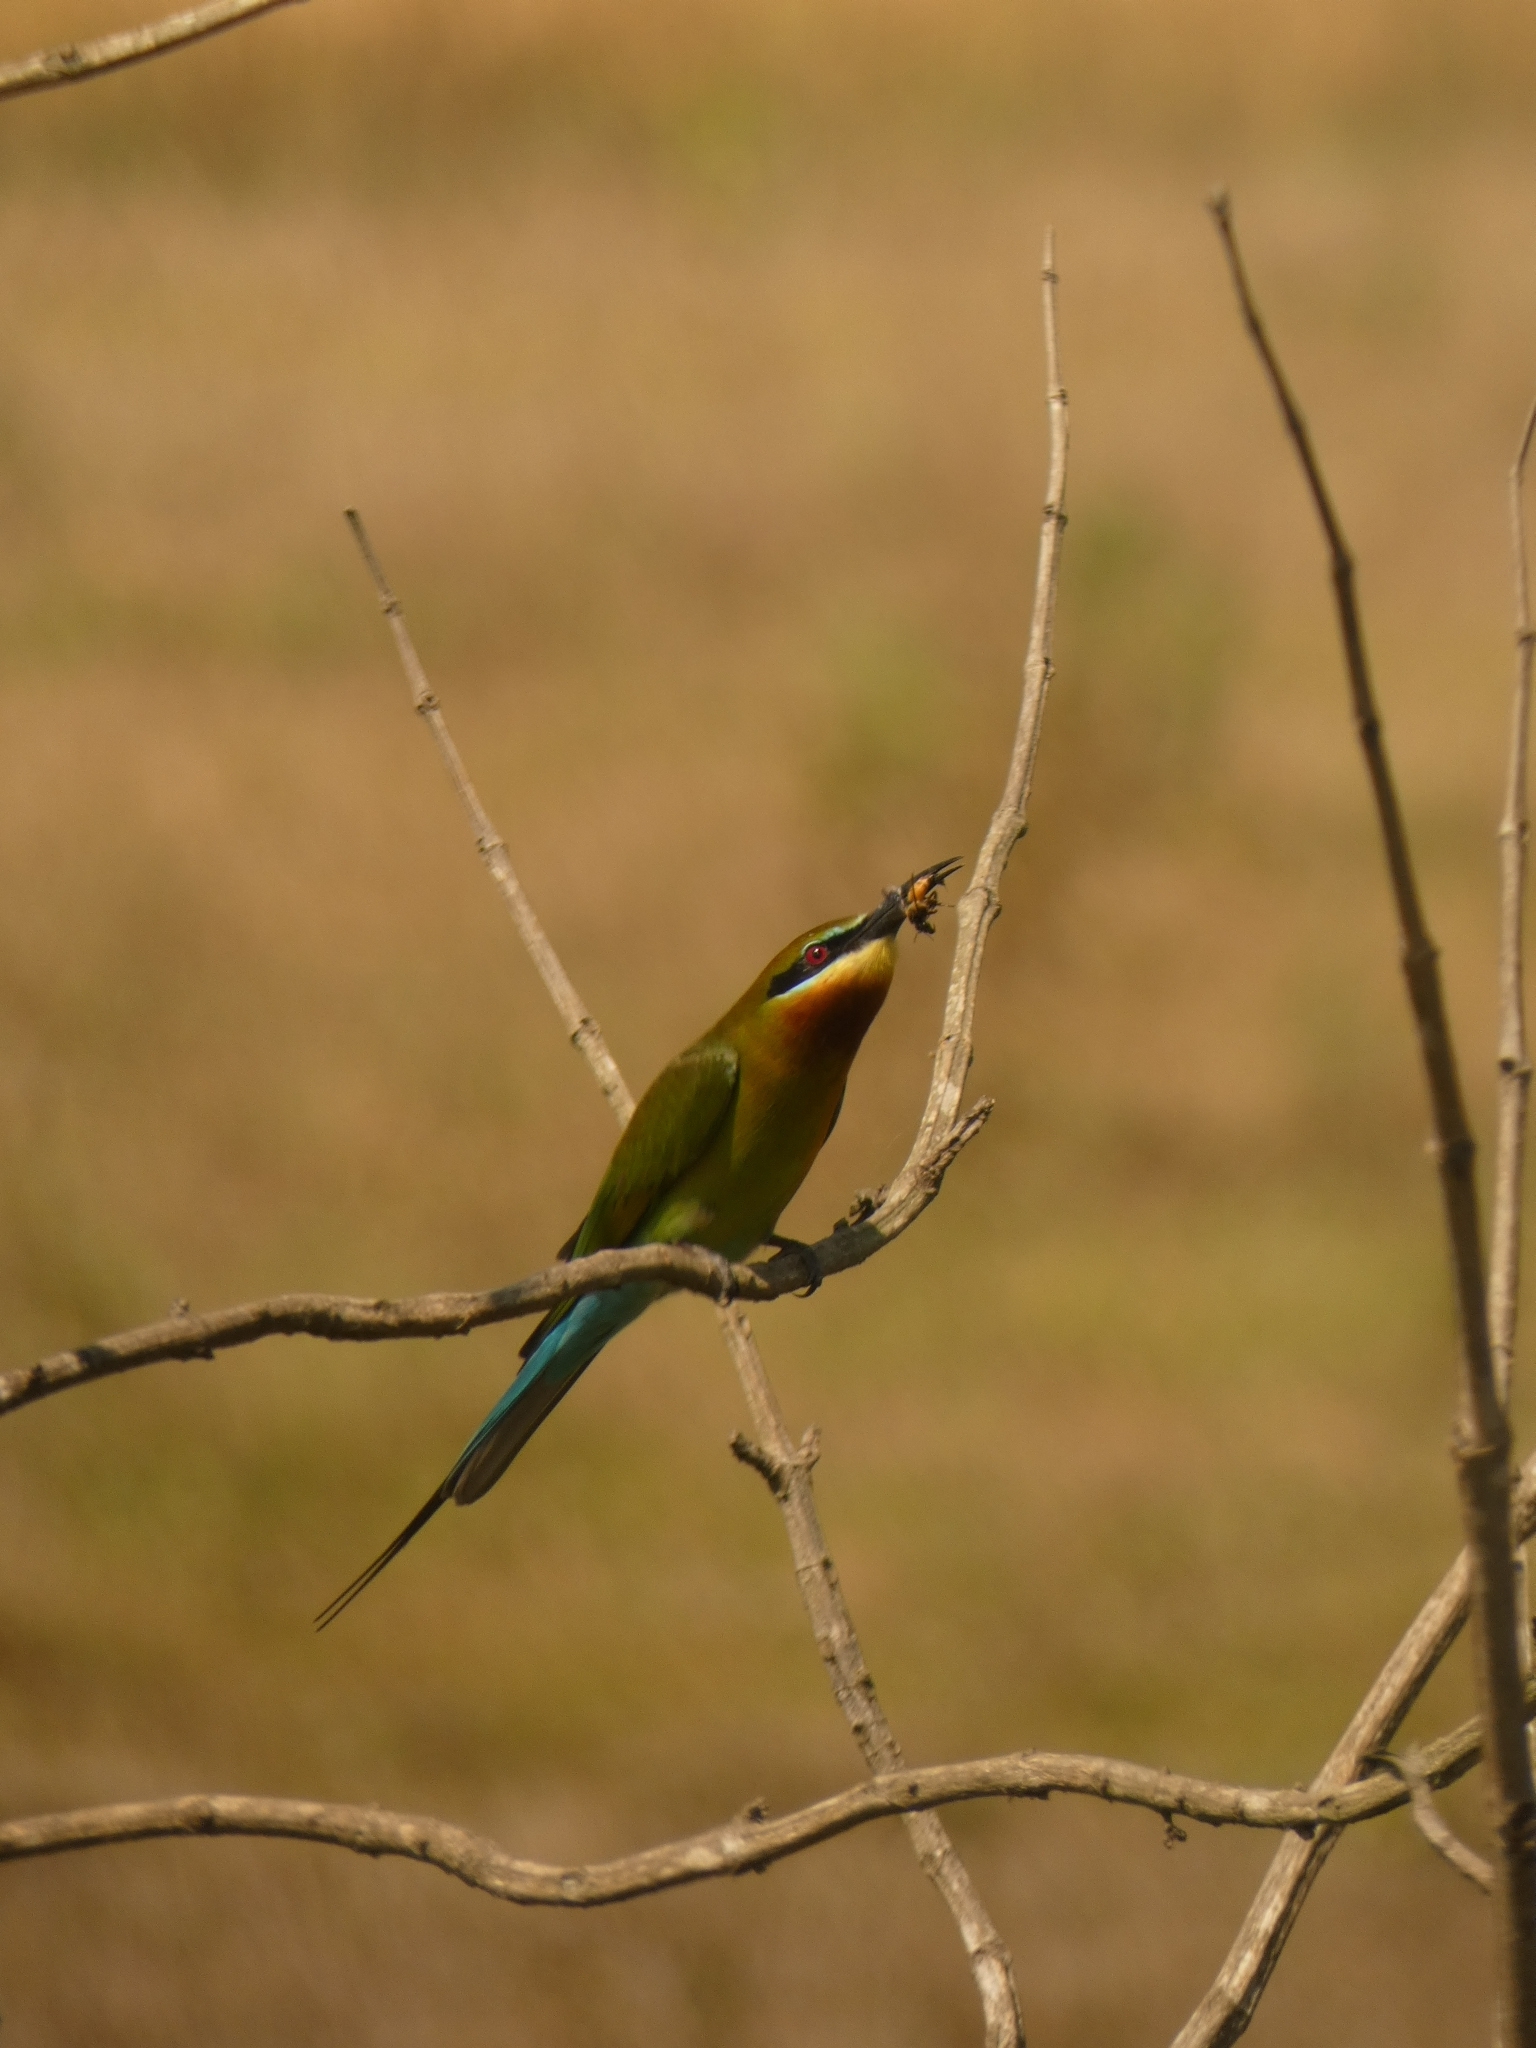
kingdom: Animalia
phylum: Chordata
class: Aves
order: Coraciiformes
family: Meropidae
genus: Merops
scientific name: Merops philippinus
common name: Blue-tailed bee-eater
